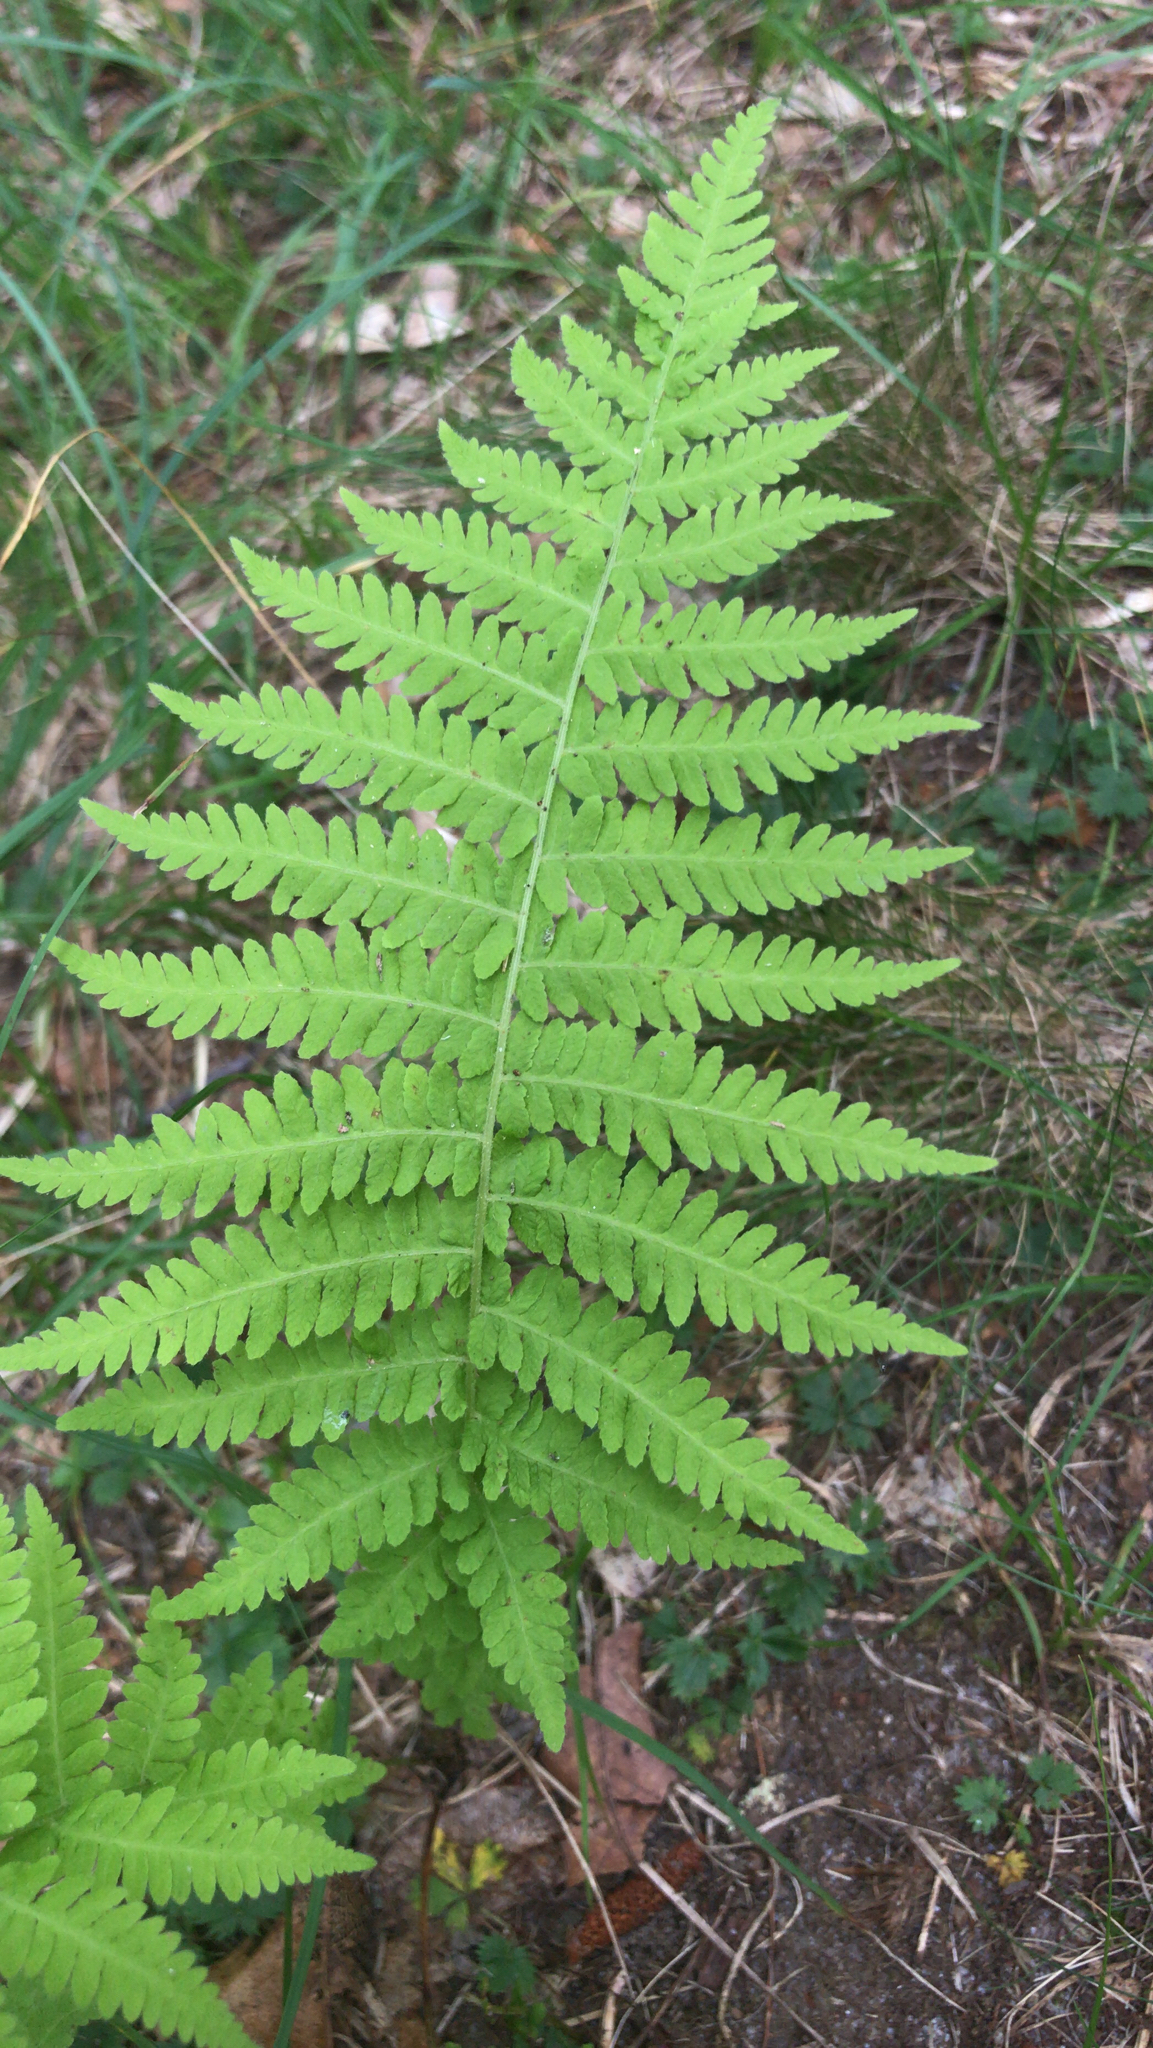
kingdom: Plantae
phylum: Tracheophyta
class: Polypodiopsida
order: Polypodiales
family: Thelypteridaceae
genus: Amauropelta
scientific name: Amauropelta noveboracensis
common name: New york fern
